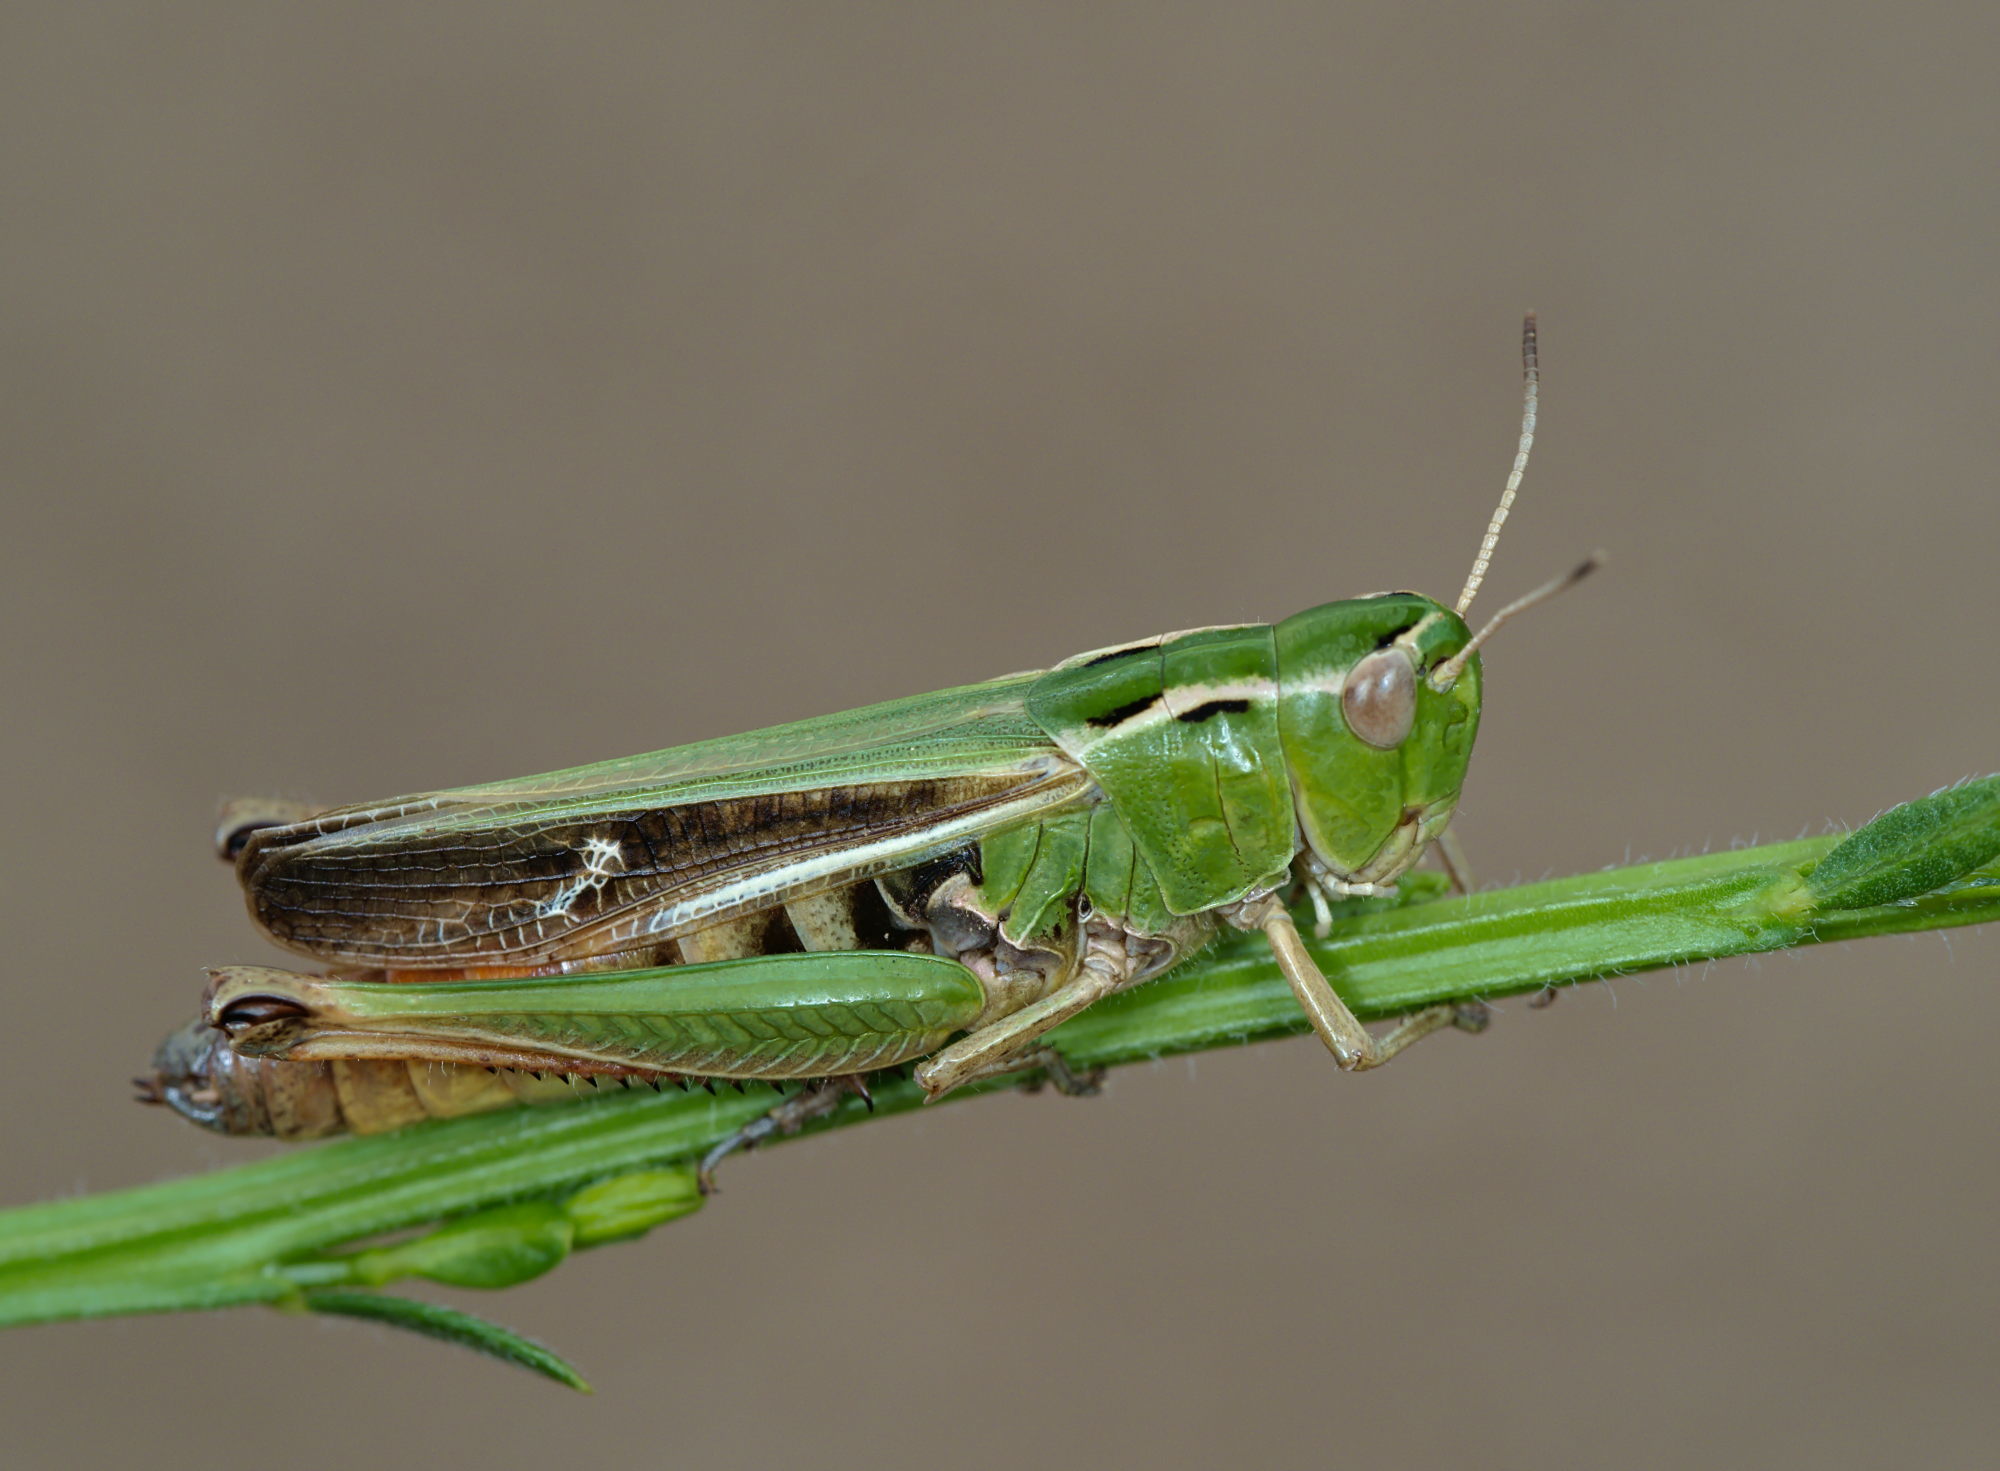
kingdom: Animalia
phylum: Arthropoda
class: Insecta
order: Orthoptera
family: Acrididae
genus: Stenobothrus
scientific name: Stenobothrus lineatus
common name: Stripe-winged grasshopper
